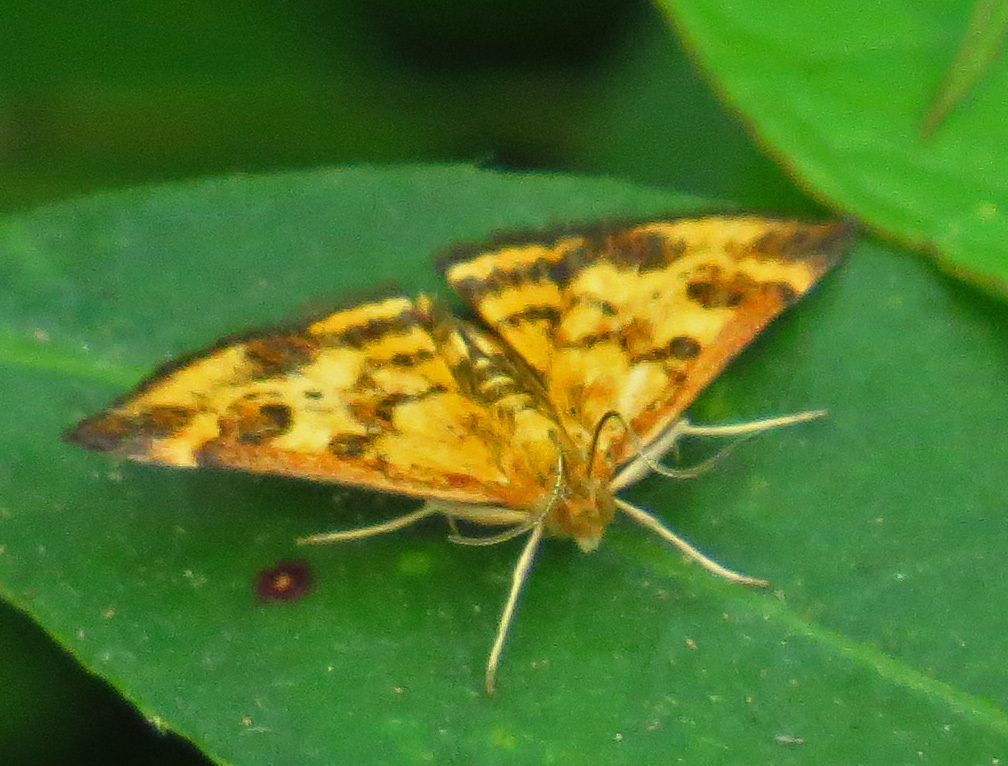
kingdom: Animalia
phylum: Arthropoda
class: Insecta
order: Lepidoptera
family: Crambidae
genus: Pyrausta
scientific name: Pyrausta subsequalis
